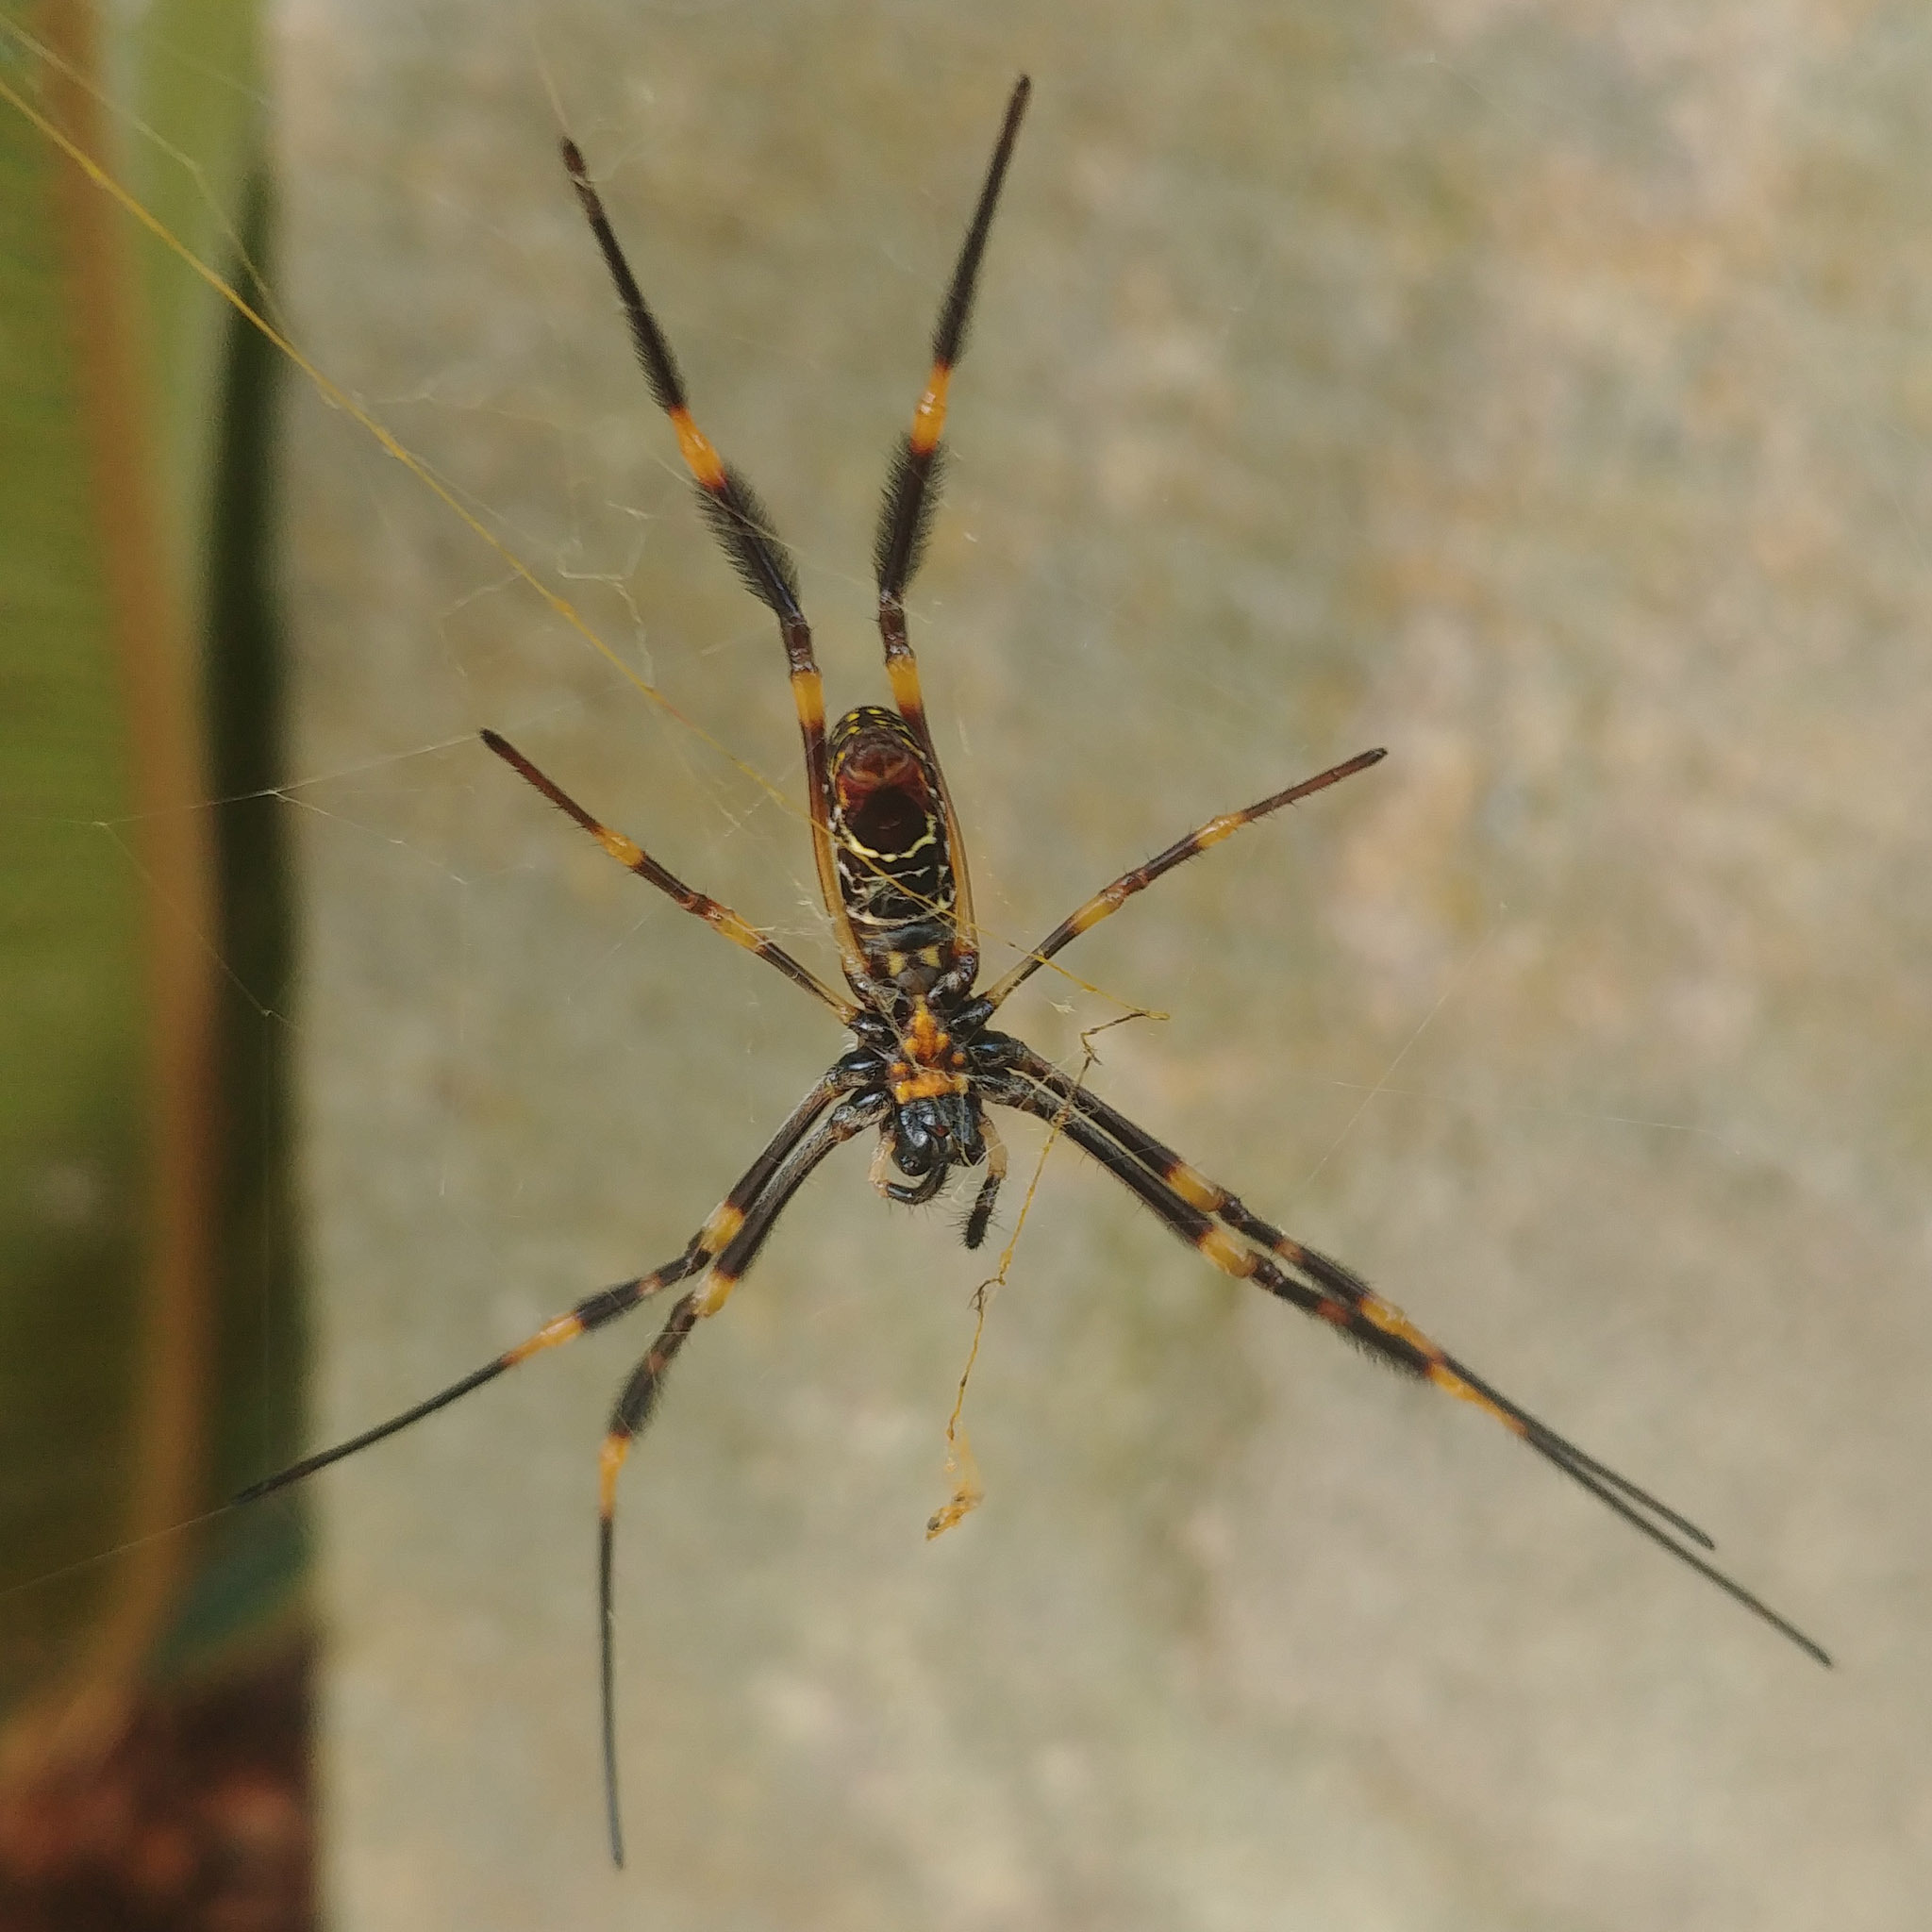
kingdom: Animalia
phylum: Arthropoda
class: Arachnida
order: Araneae
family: Araneidae
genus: Trichonephila
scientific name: Trichonephila plumipes
